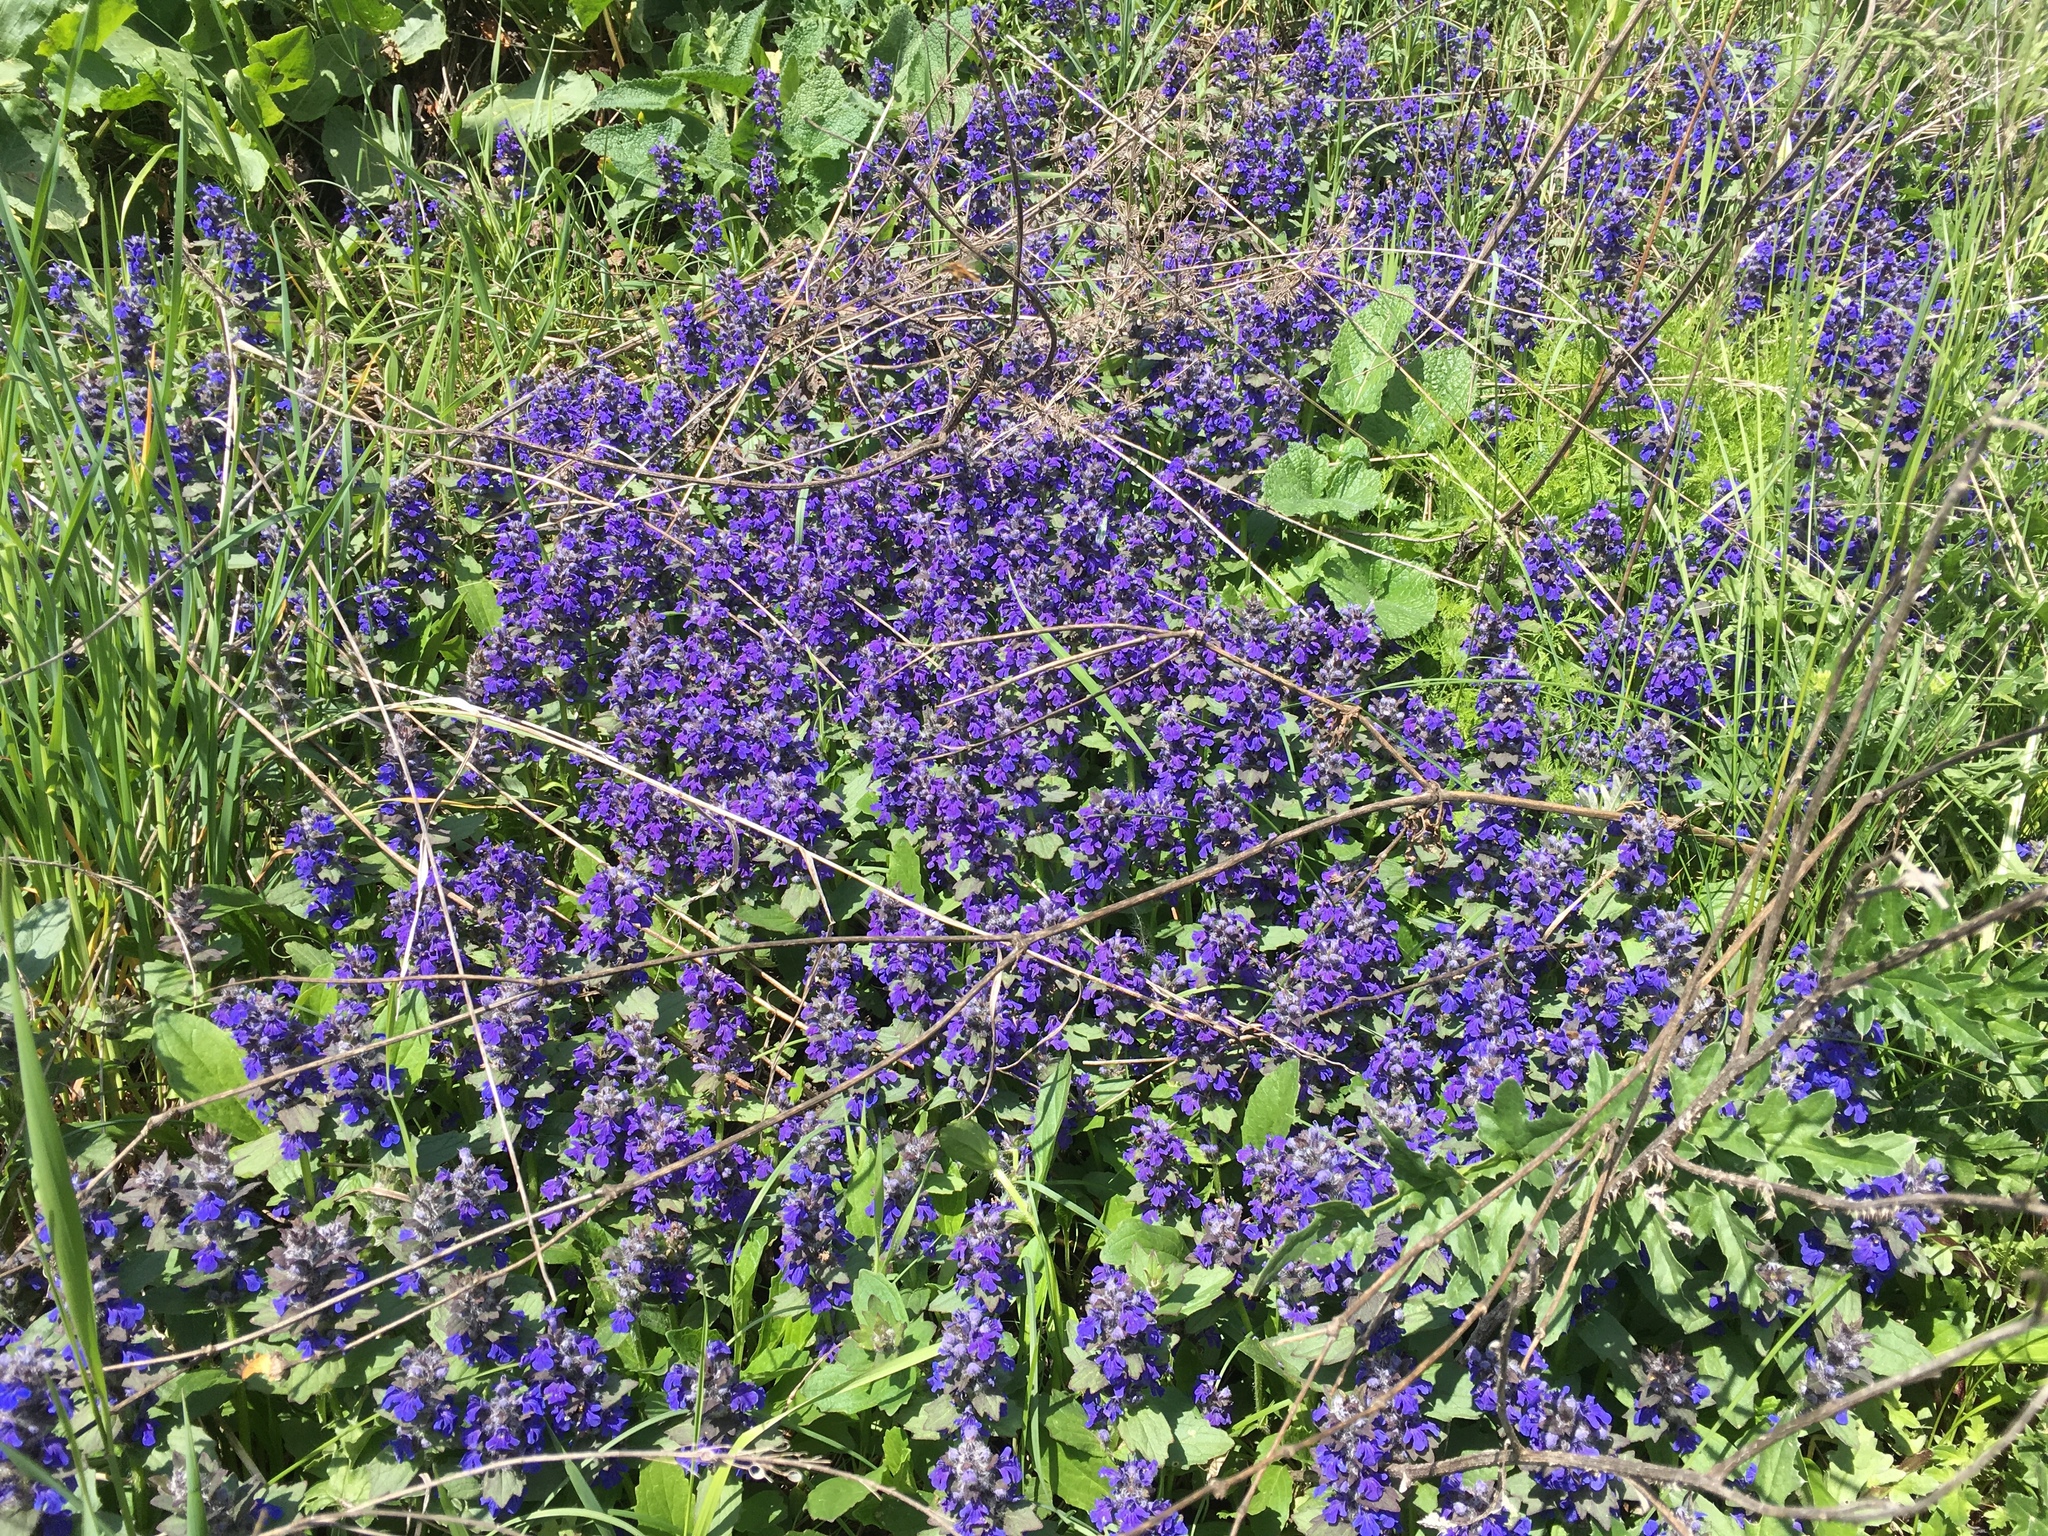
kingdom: Plantae
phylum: Tracheophyta
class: Magnoliopsida
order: Lamiales
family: Lamiaceae
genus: Ajuga
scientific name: Ajuga genevensis
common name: Blue bugle
